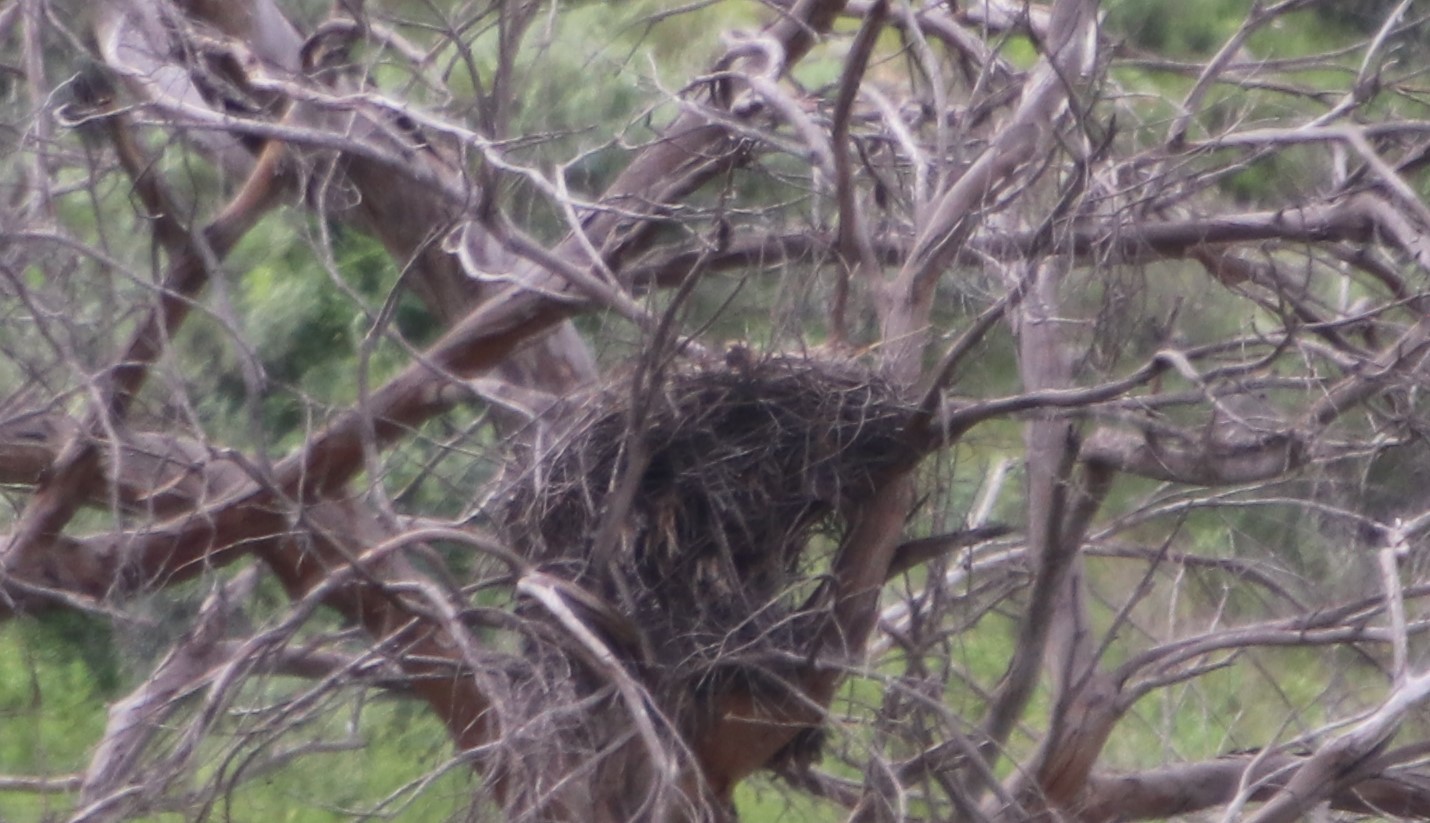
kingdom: Animalia
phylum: Chordata
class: Aves
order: Accipitriformes
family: Accipitridae
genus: Buteo
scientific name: Buteo jamaicensis
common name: Red-tailed hawk
